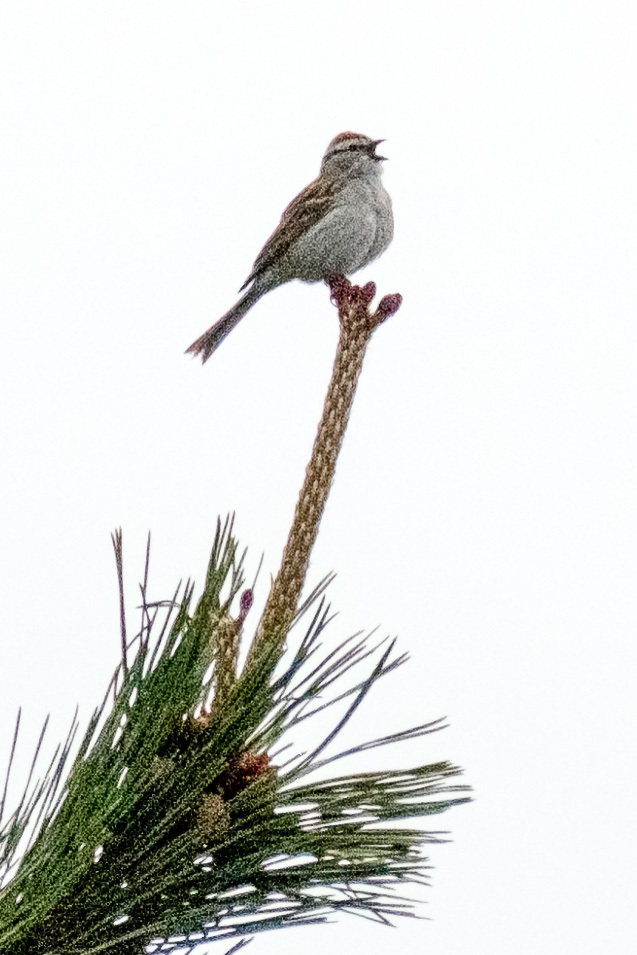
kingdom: Animalia
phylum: Chordata
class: Aves
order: Passeriformes
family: Passerellidae
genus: Spizella
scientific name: Spizella passerina
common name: Chipping sparrow
